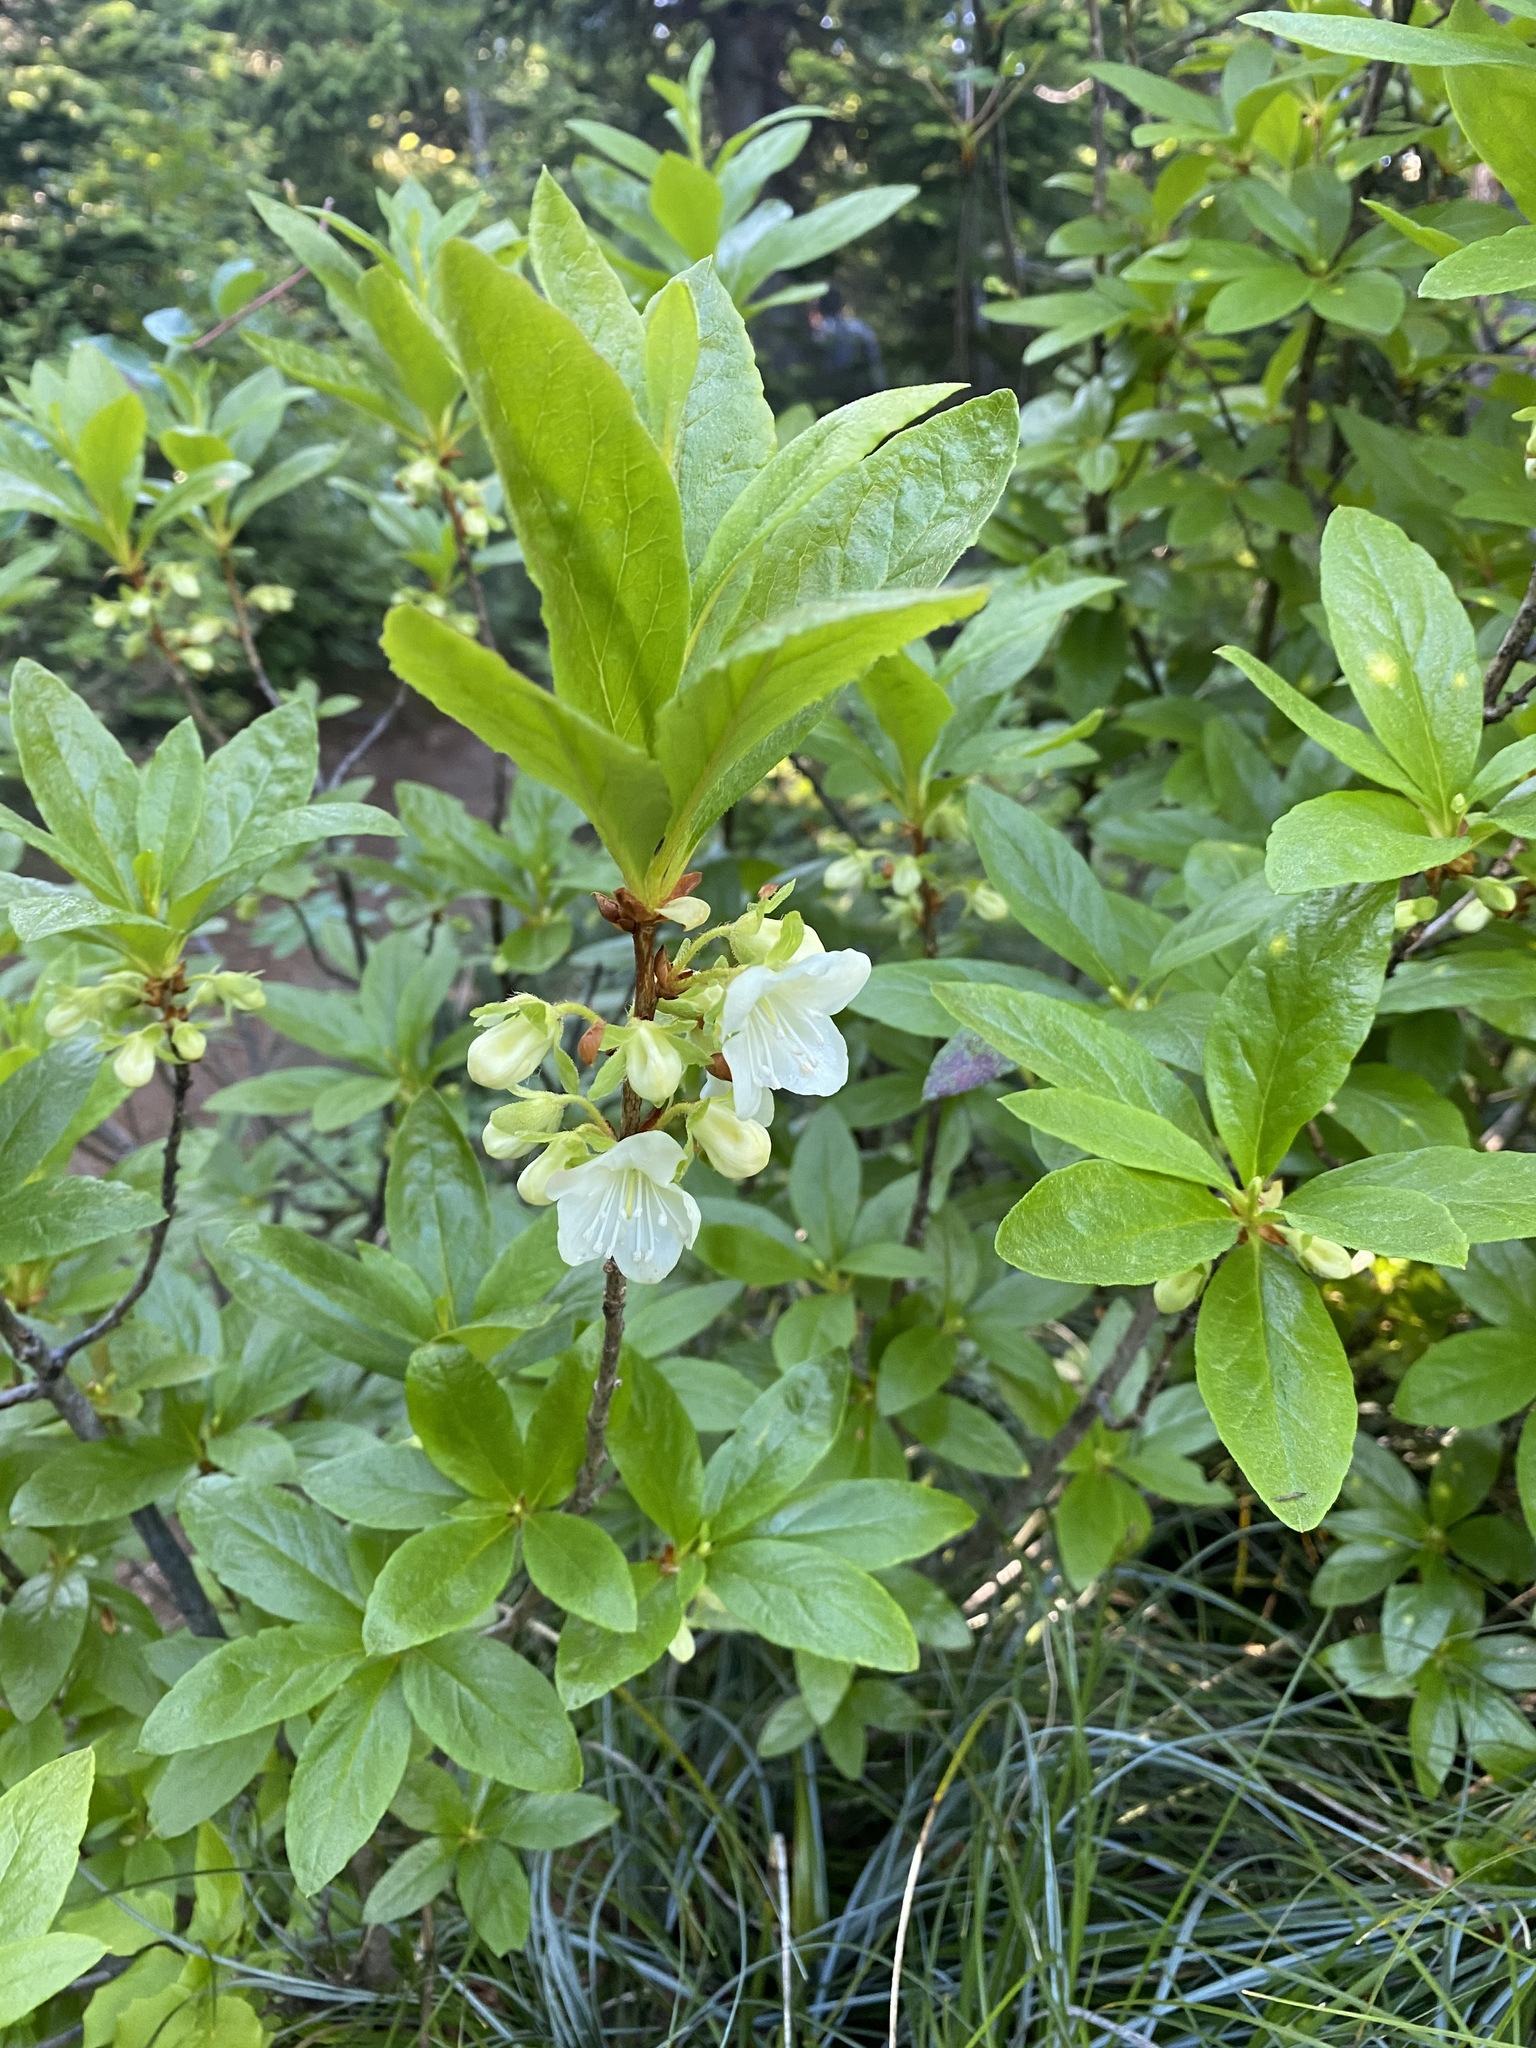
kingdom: Plantae
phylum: Tracheophyta
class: Magnoliopsida
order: Ericales
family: Ericaceae
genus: Rhododendron
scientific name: Rhododendron albiflorum
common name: White rhododendron
